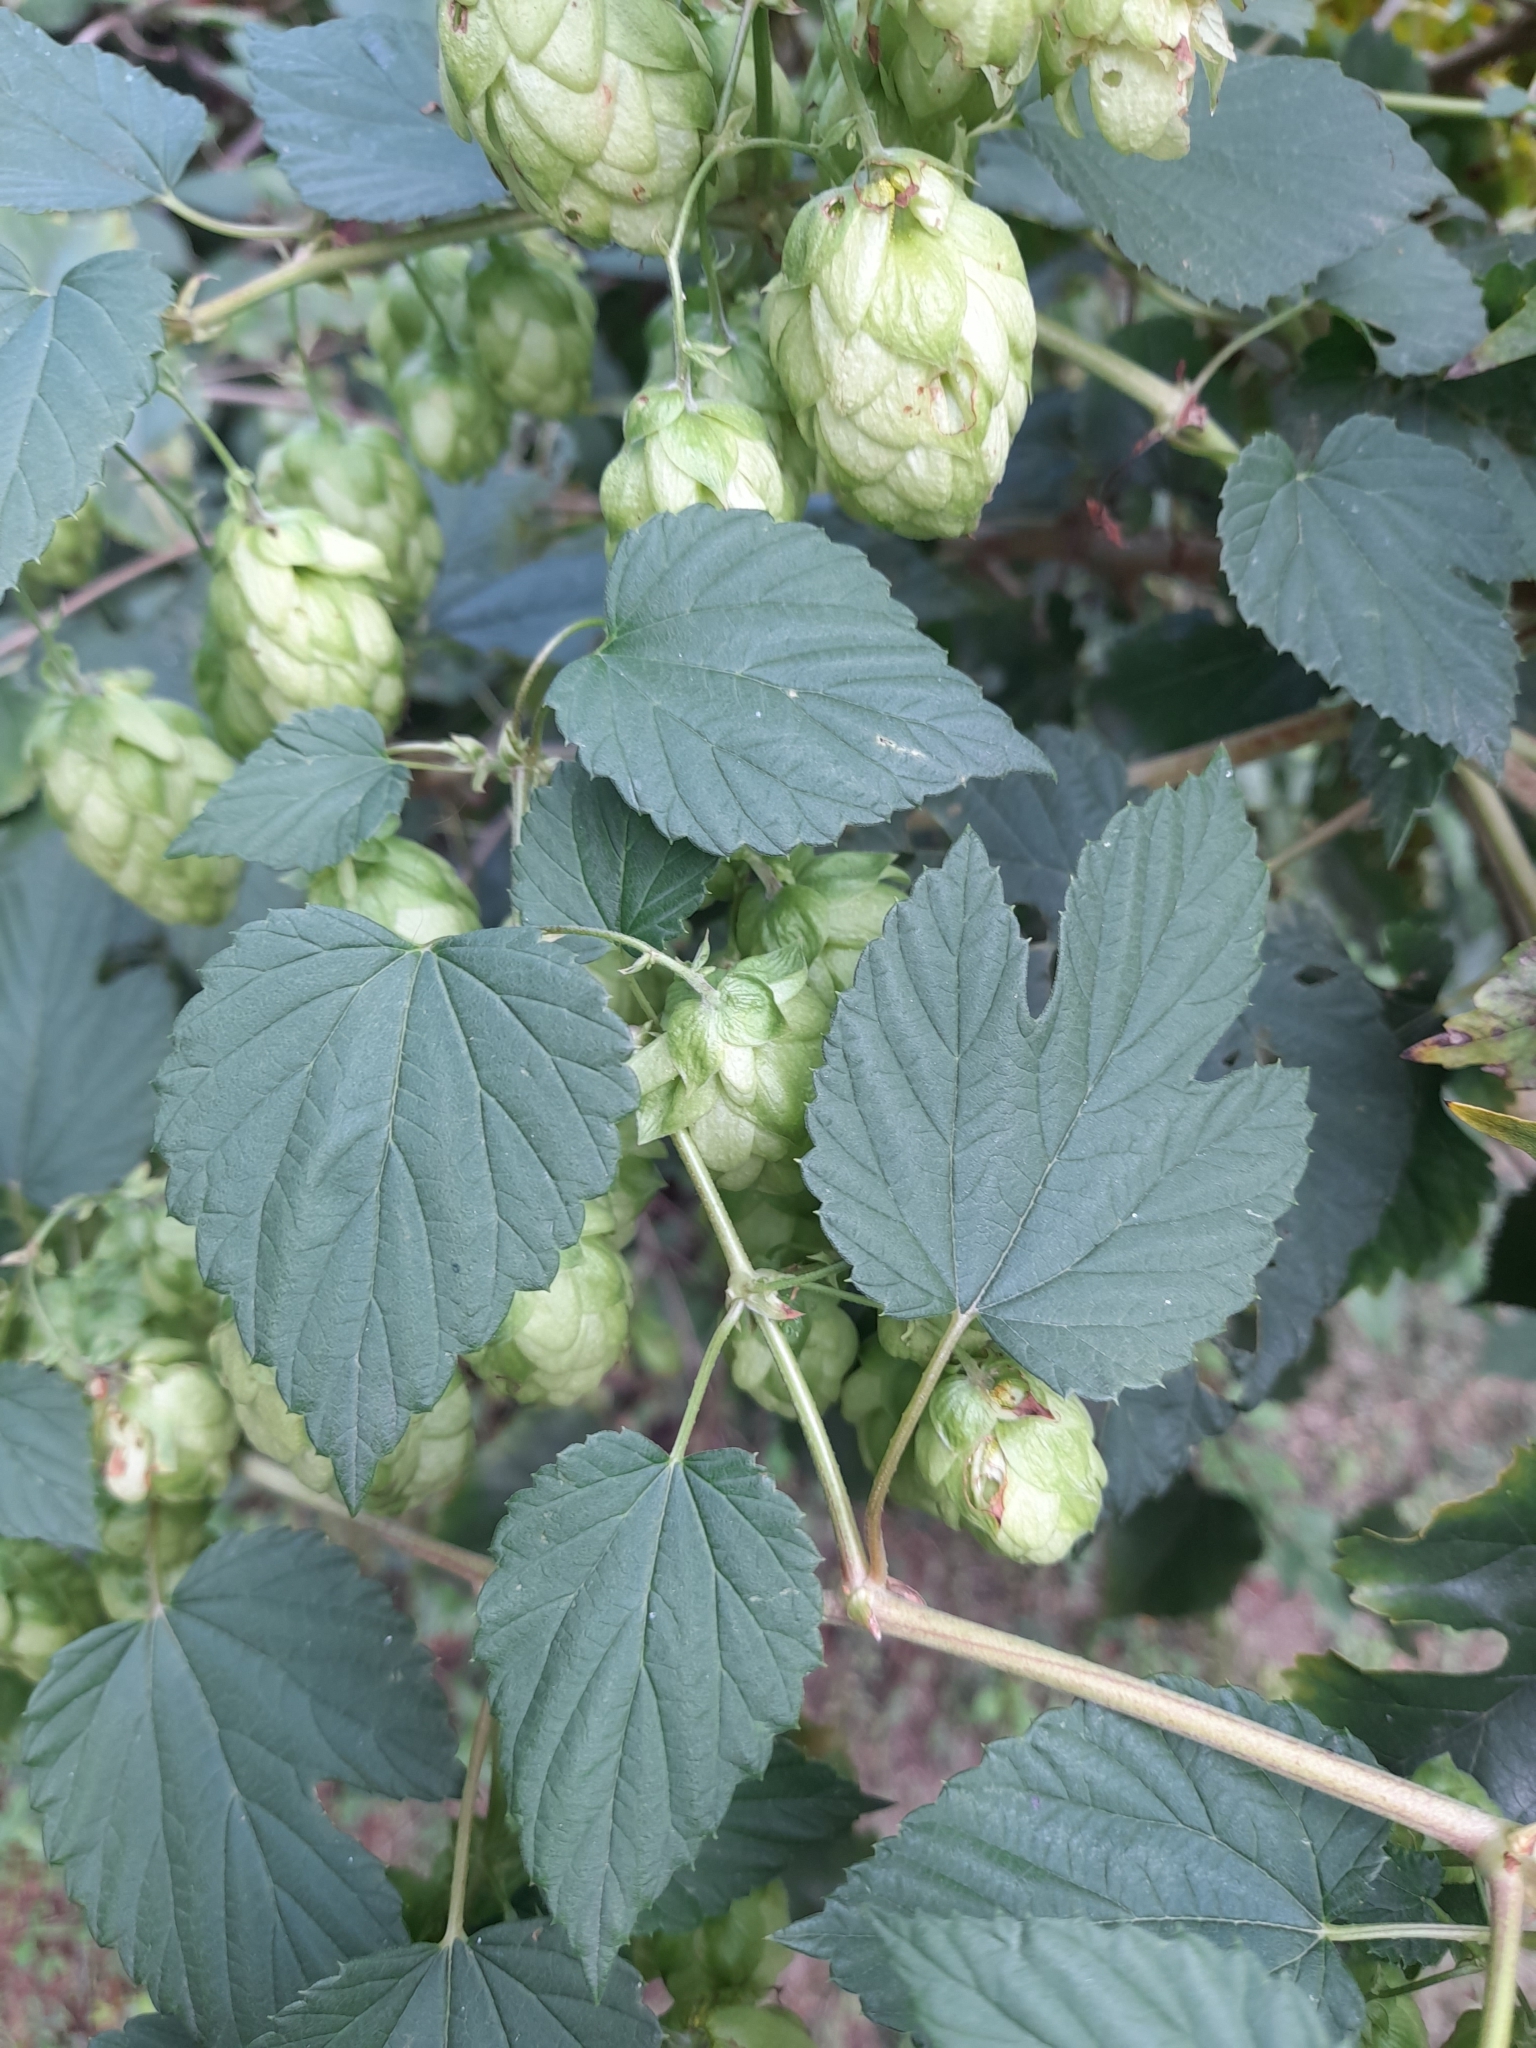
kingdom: Plantae
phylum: Tracheophyta
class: Magnoliopsida
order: Rosales
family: Cannabaceae
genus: Humulus
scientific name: Humulus lupulus
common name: Hop
